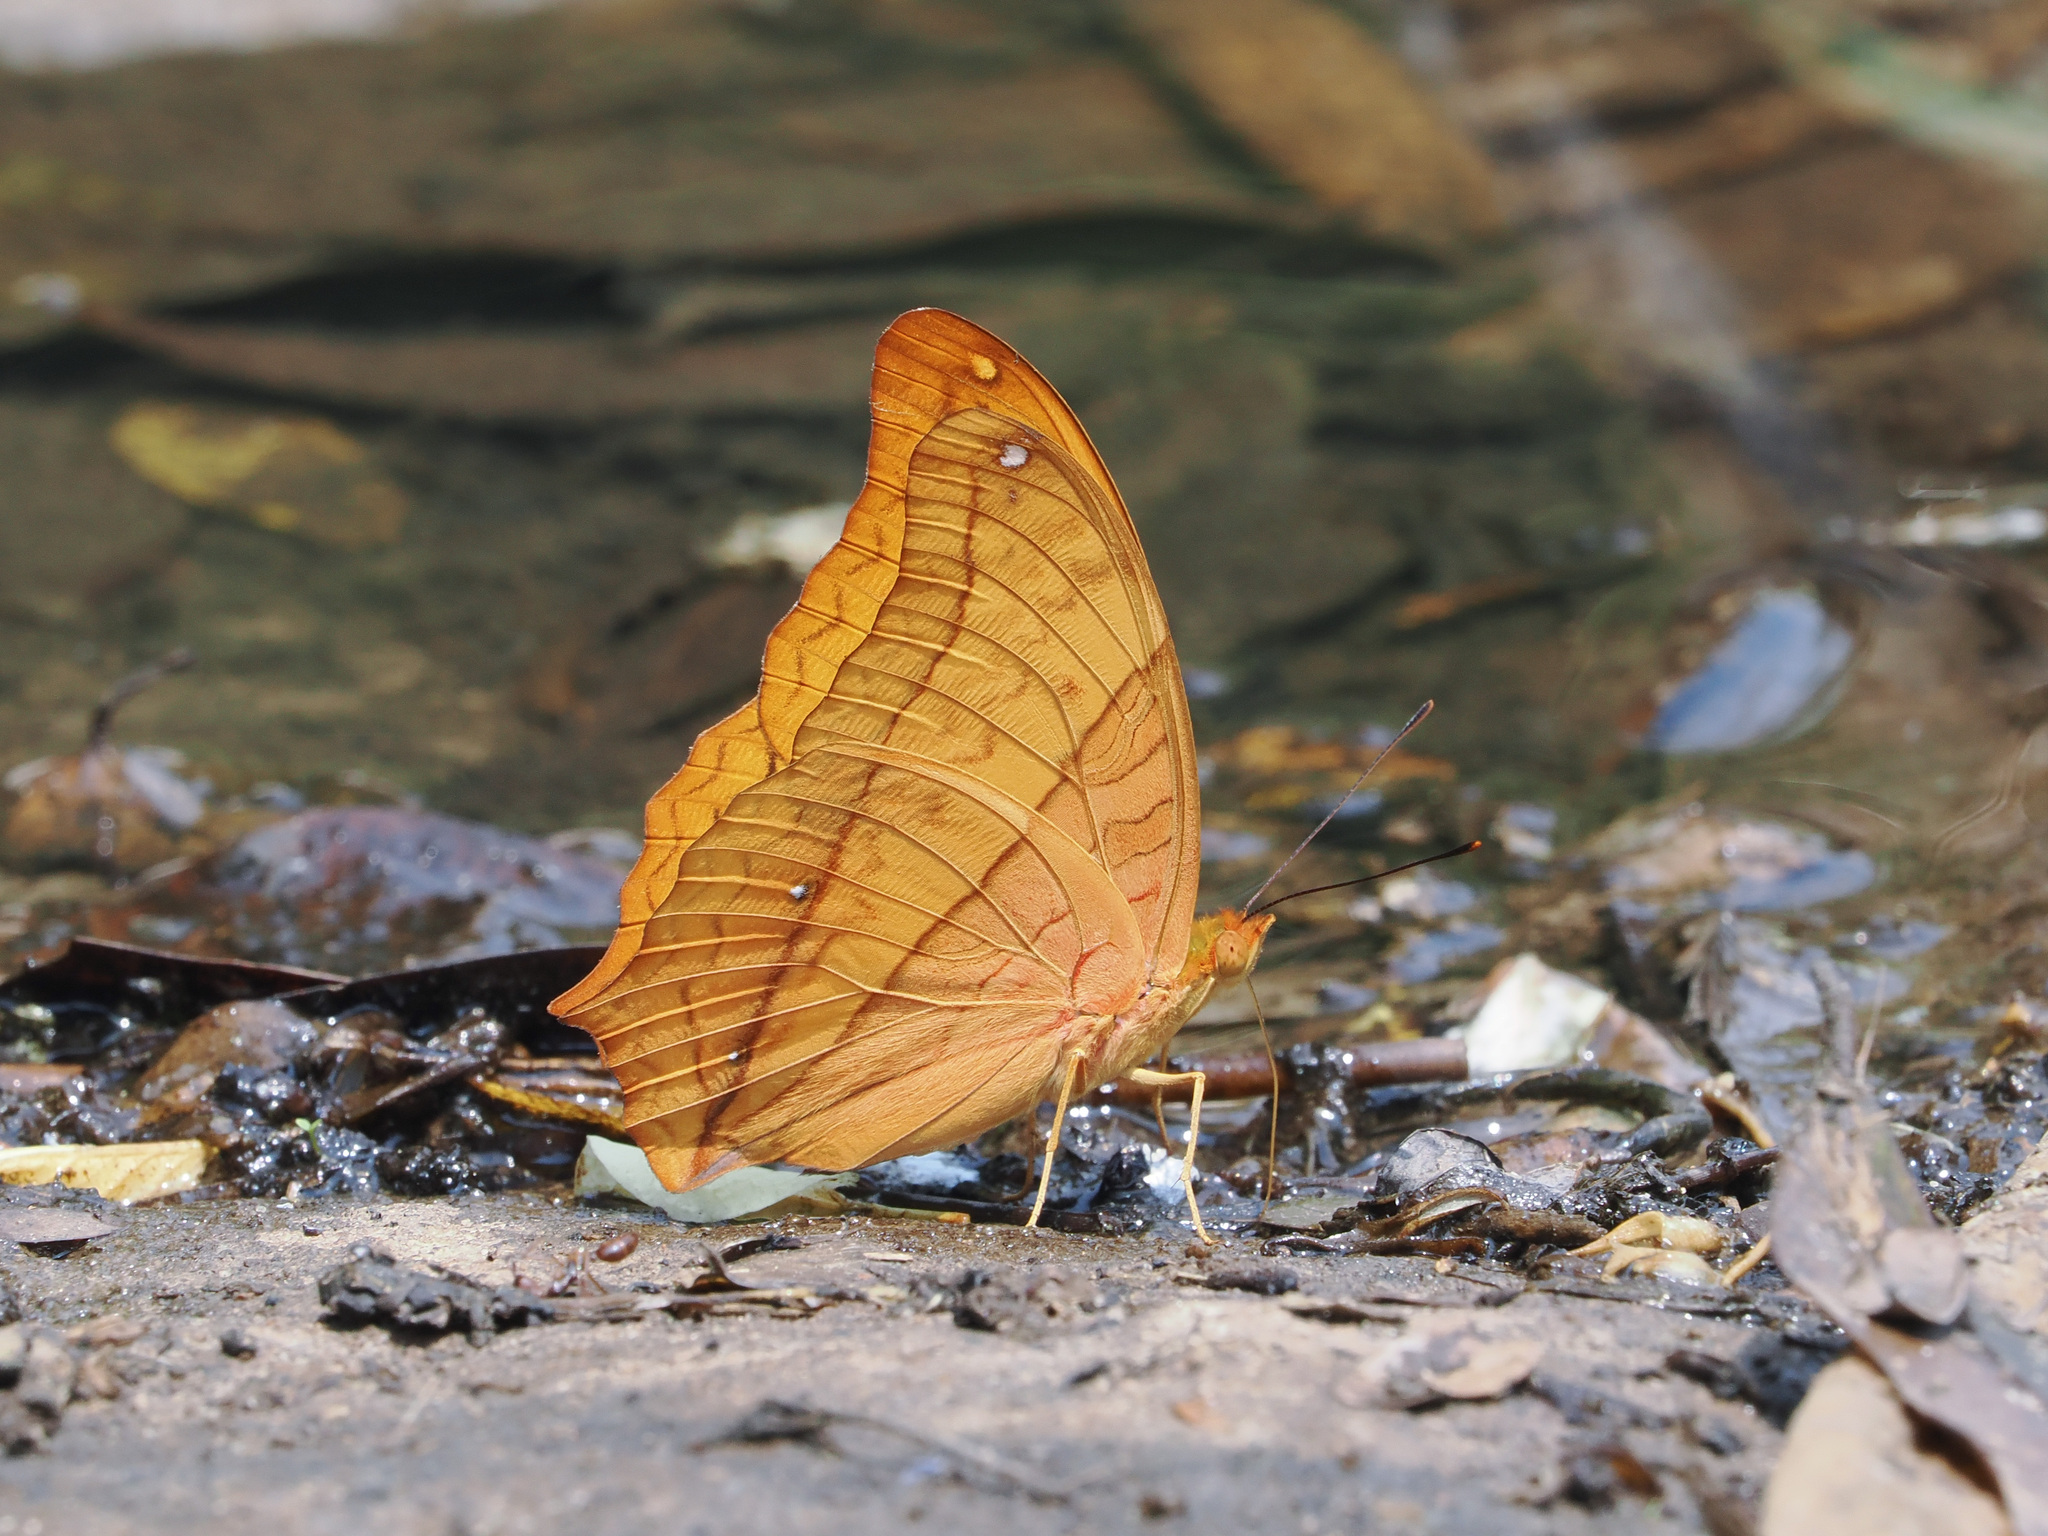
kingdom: Animalia
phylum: Arthropoda
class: Insecta
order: Lepidoptera
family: Nymphalidae
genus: Vindula
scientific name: Vindula erota
